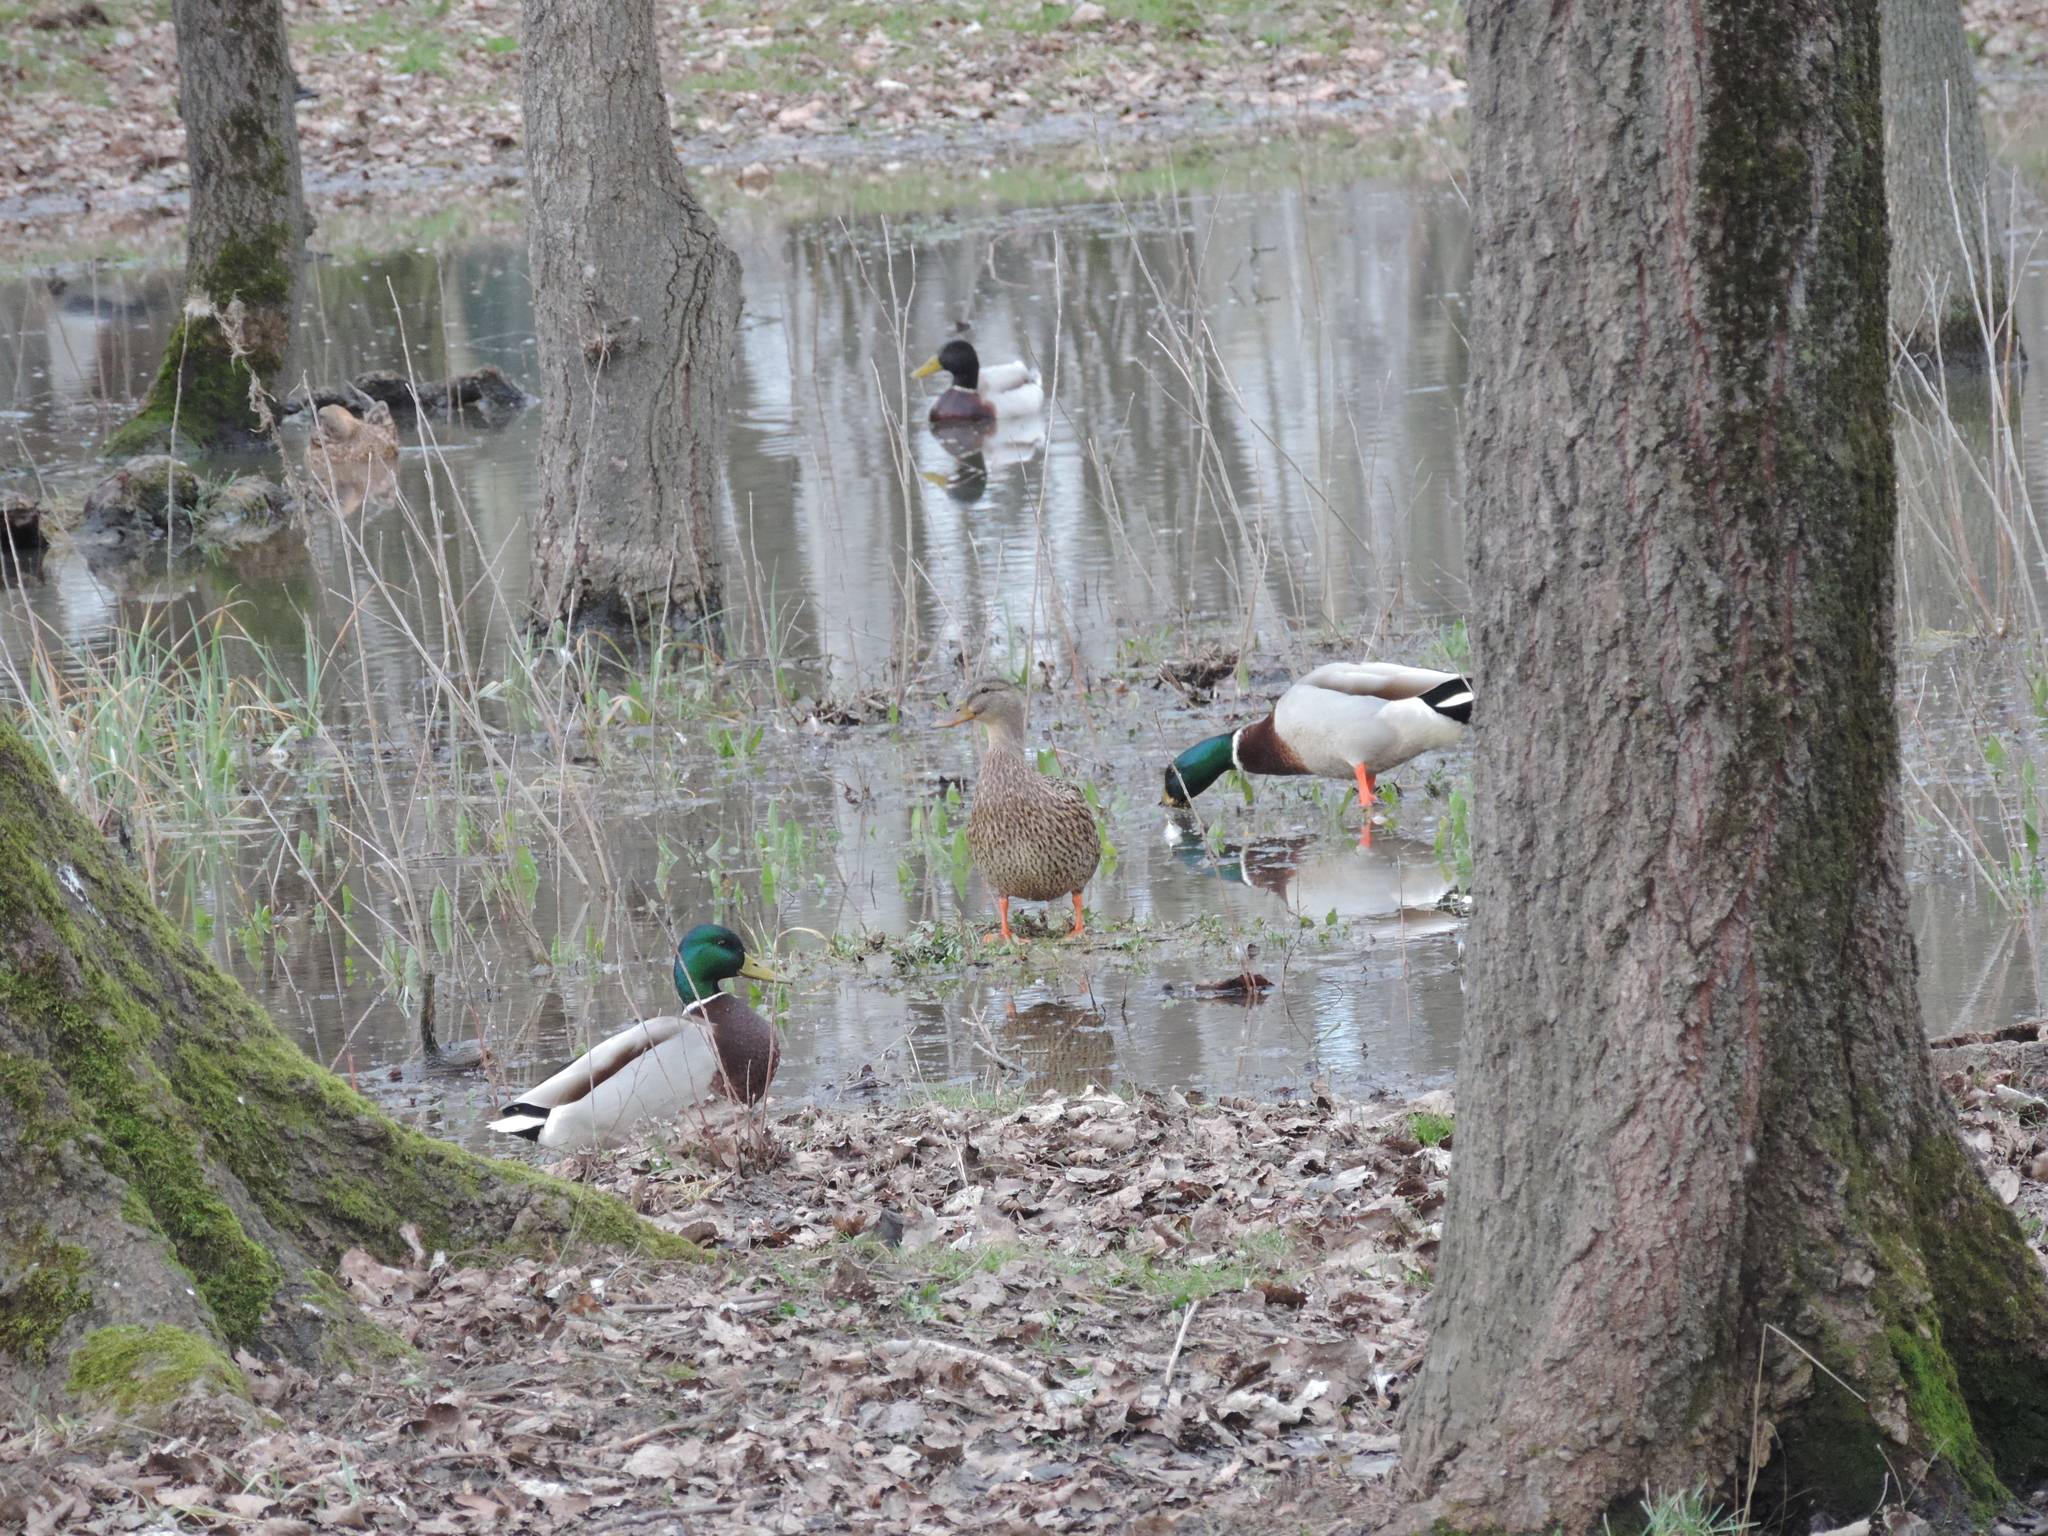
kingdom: Animalia
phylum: Chordata
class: Aves
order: Anseriformes
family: Anatidae
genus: Anas
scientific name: Anas platyrhynchos
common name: Mallard
